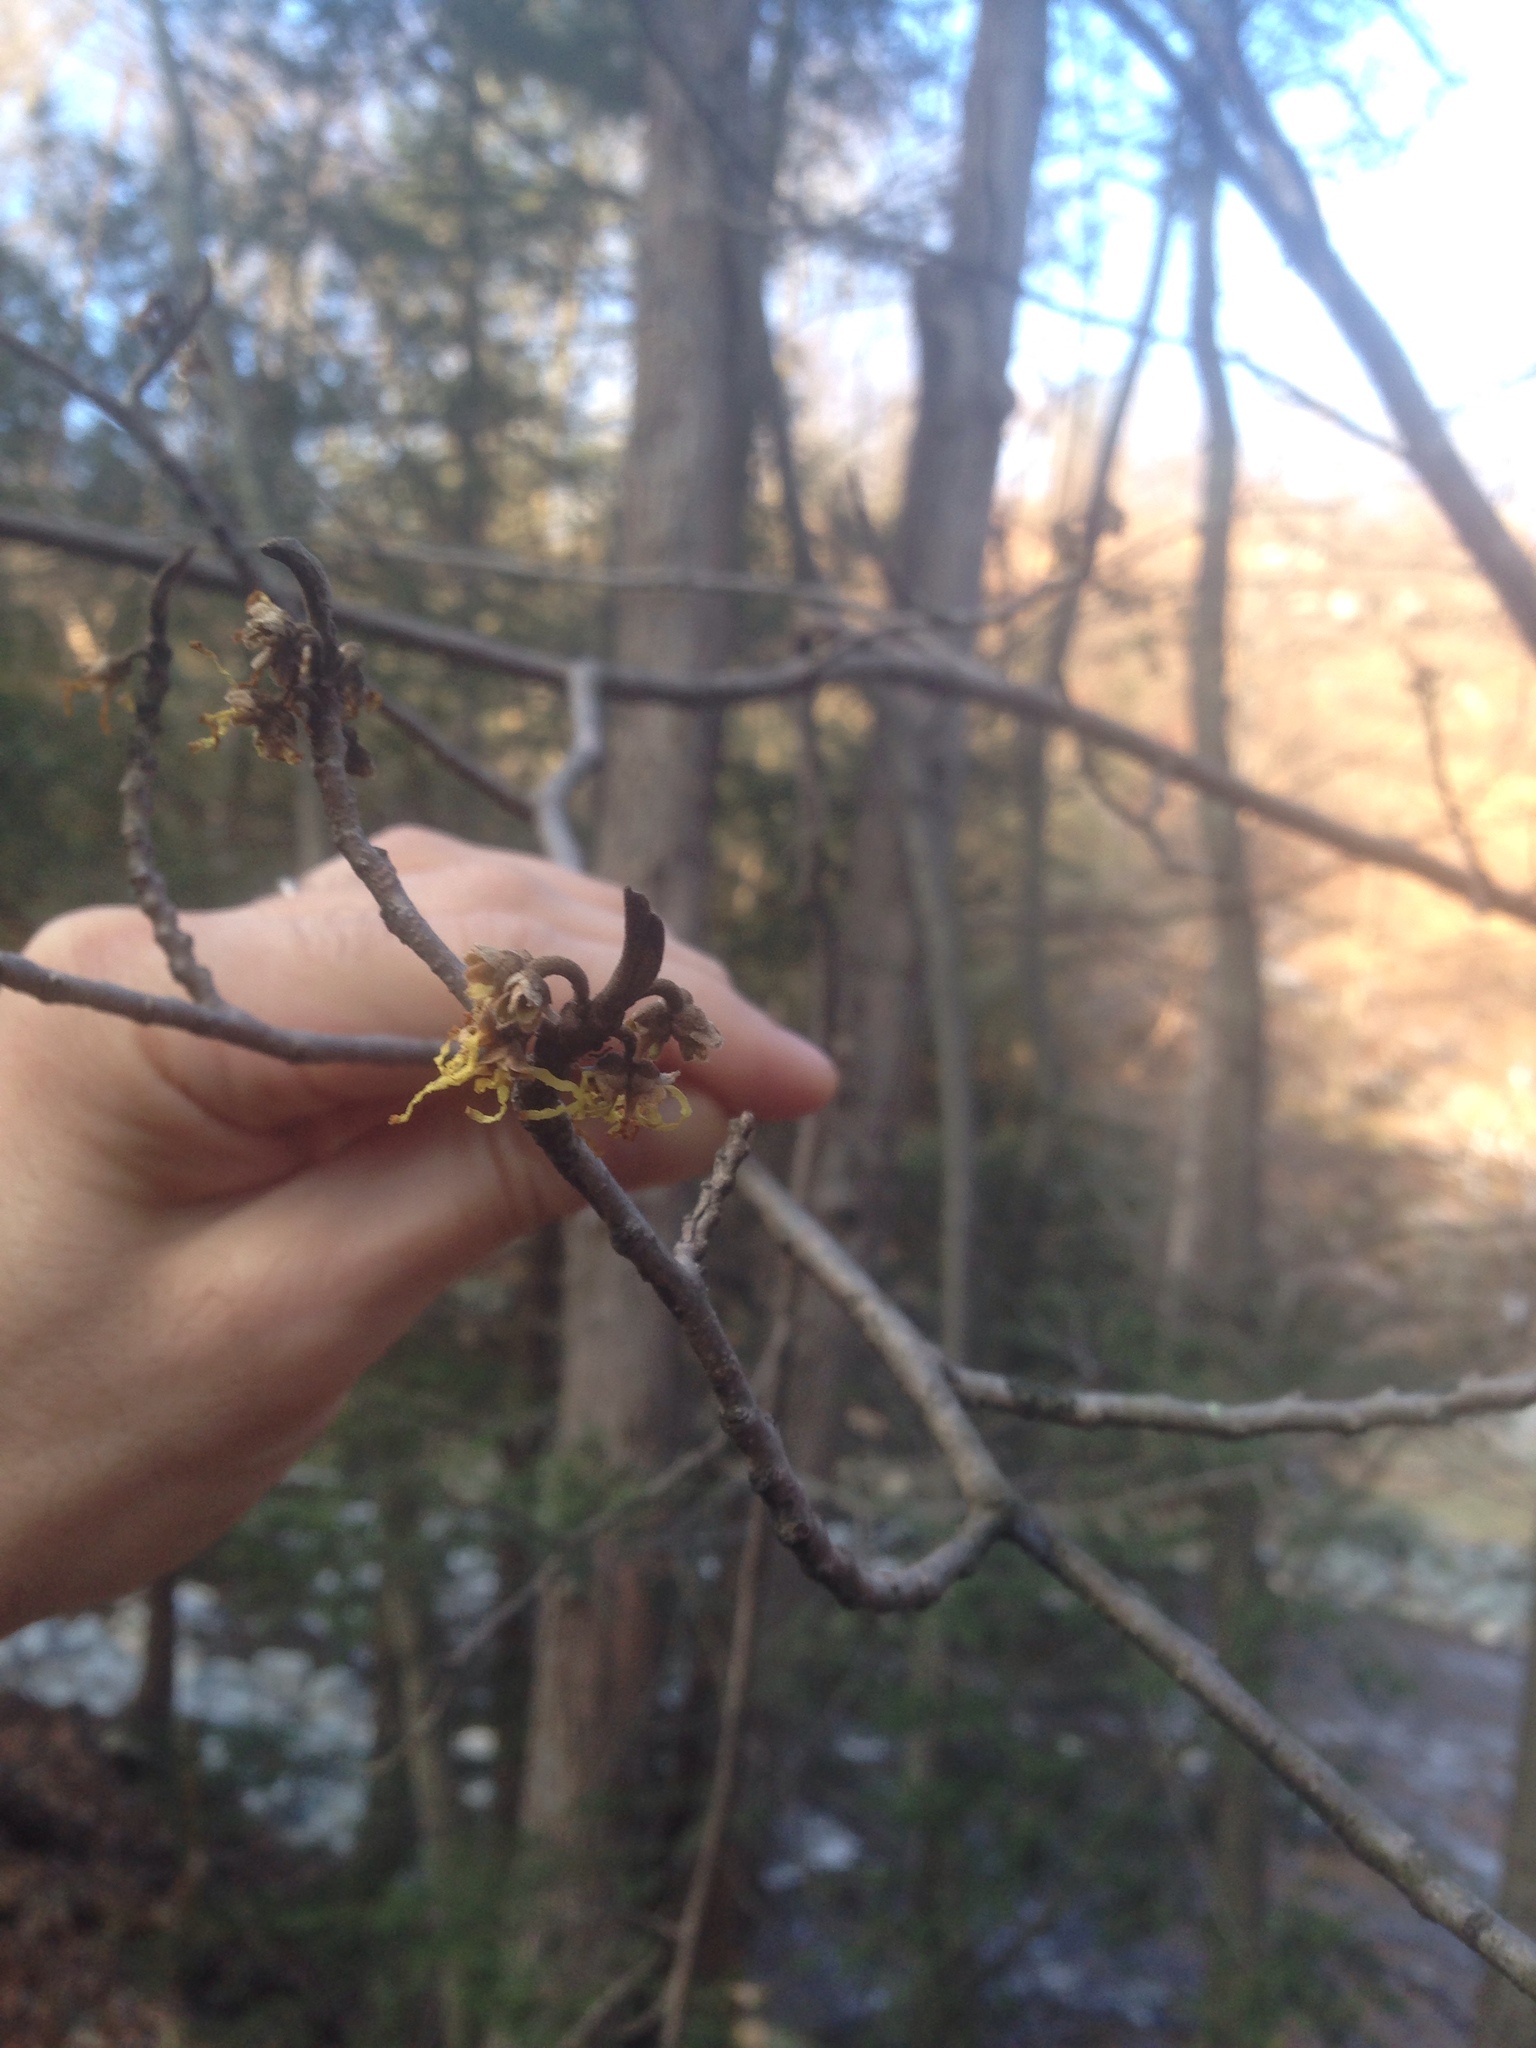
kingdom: Plantae
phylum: Tracheophyta
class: Magnoliopsida
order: Saxifragales
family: Hamamelidaceae
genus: Hamamelis
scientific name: Hamamelis virginiana
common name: Witch-hazel
